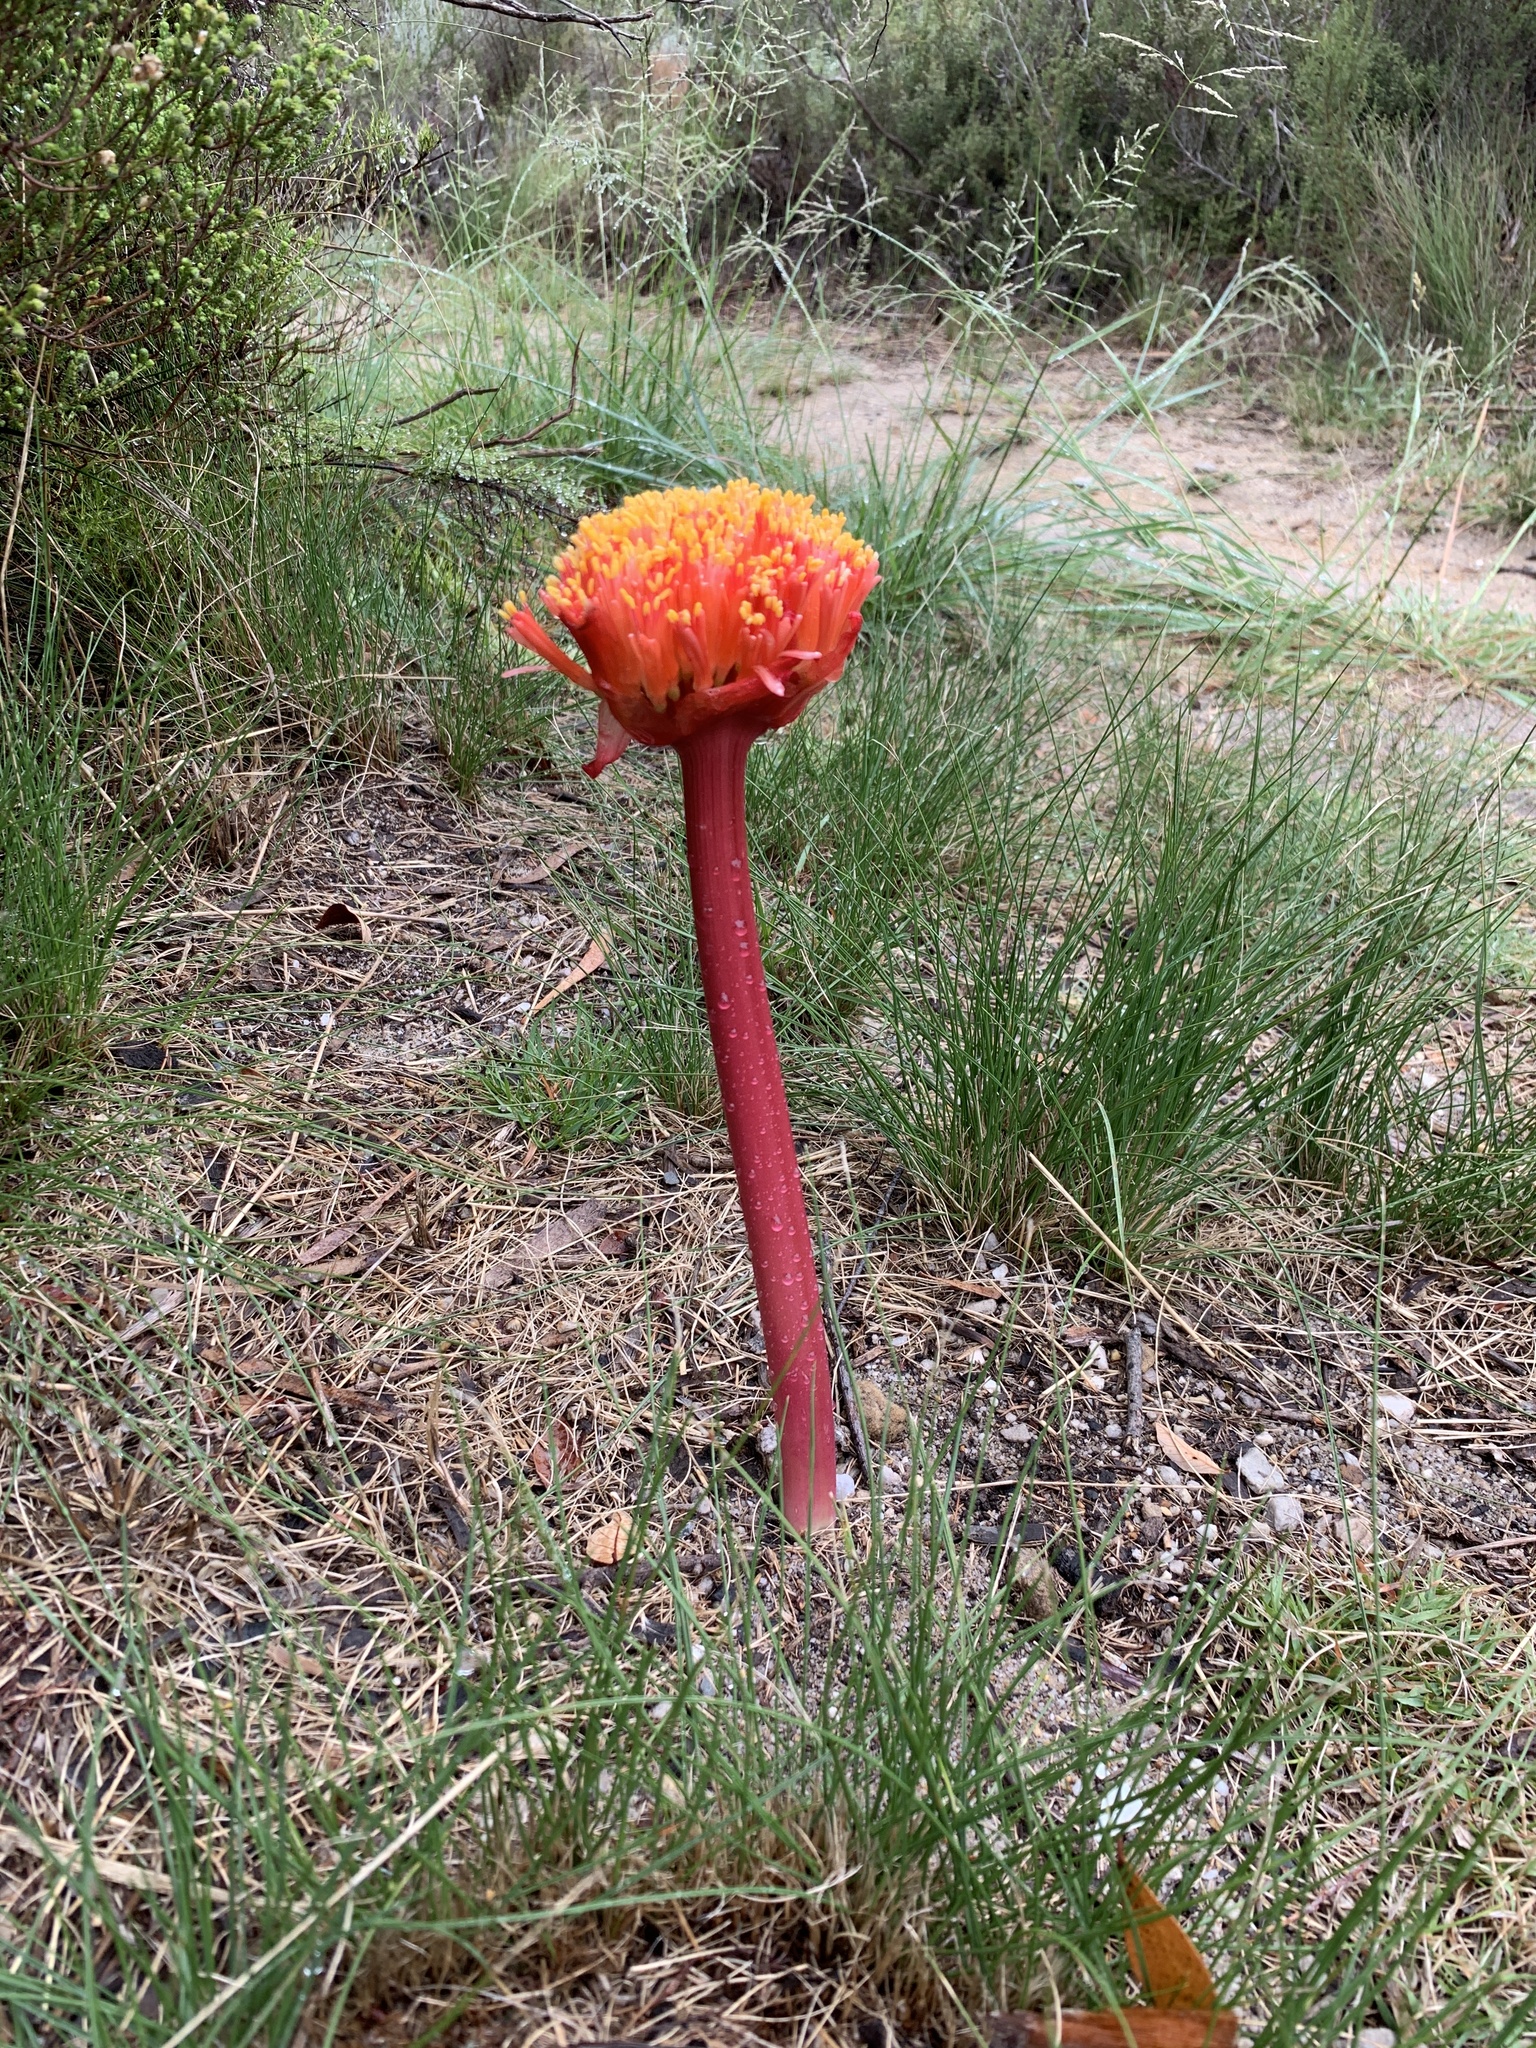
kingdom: Plantae
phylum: Tracheophyta
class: Liliopsida
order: Asparagales
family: Amaryllidaceae
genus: Haemanthus
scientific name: Haemanthus sanguineus
